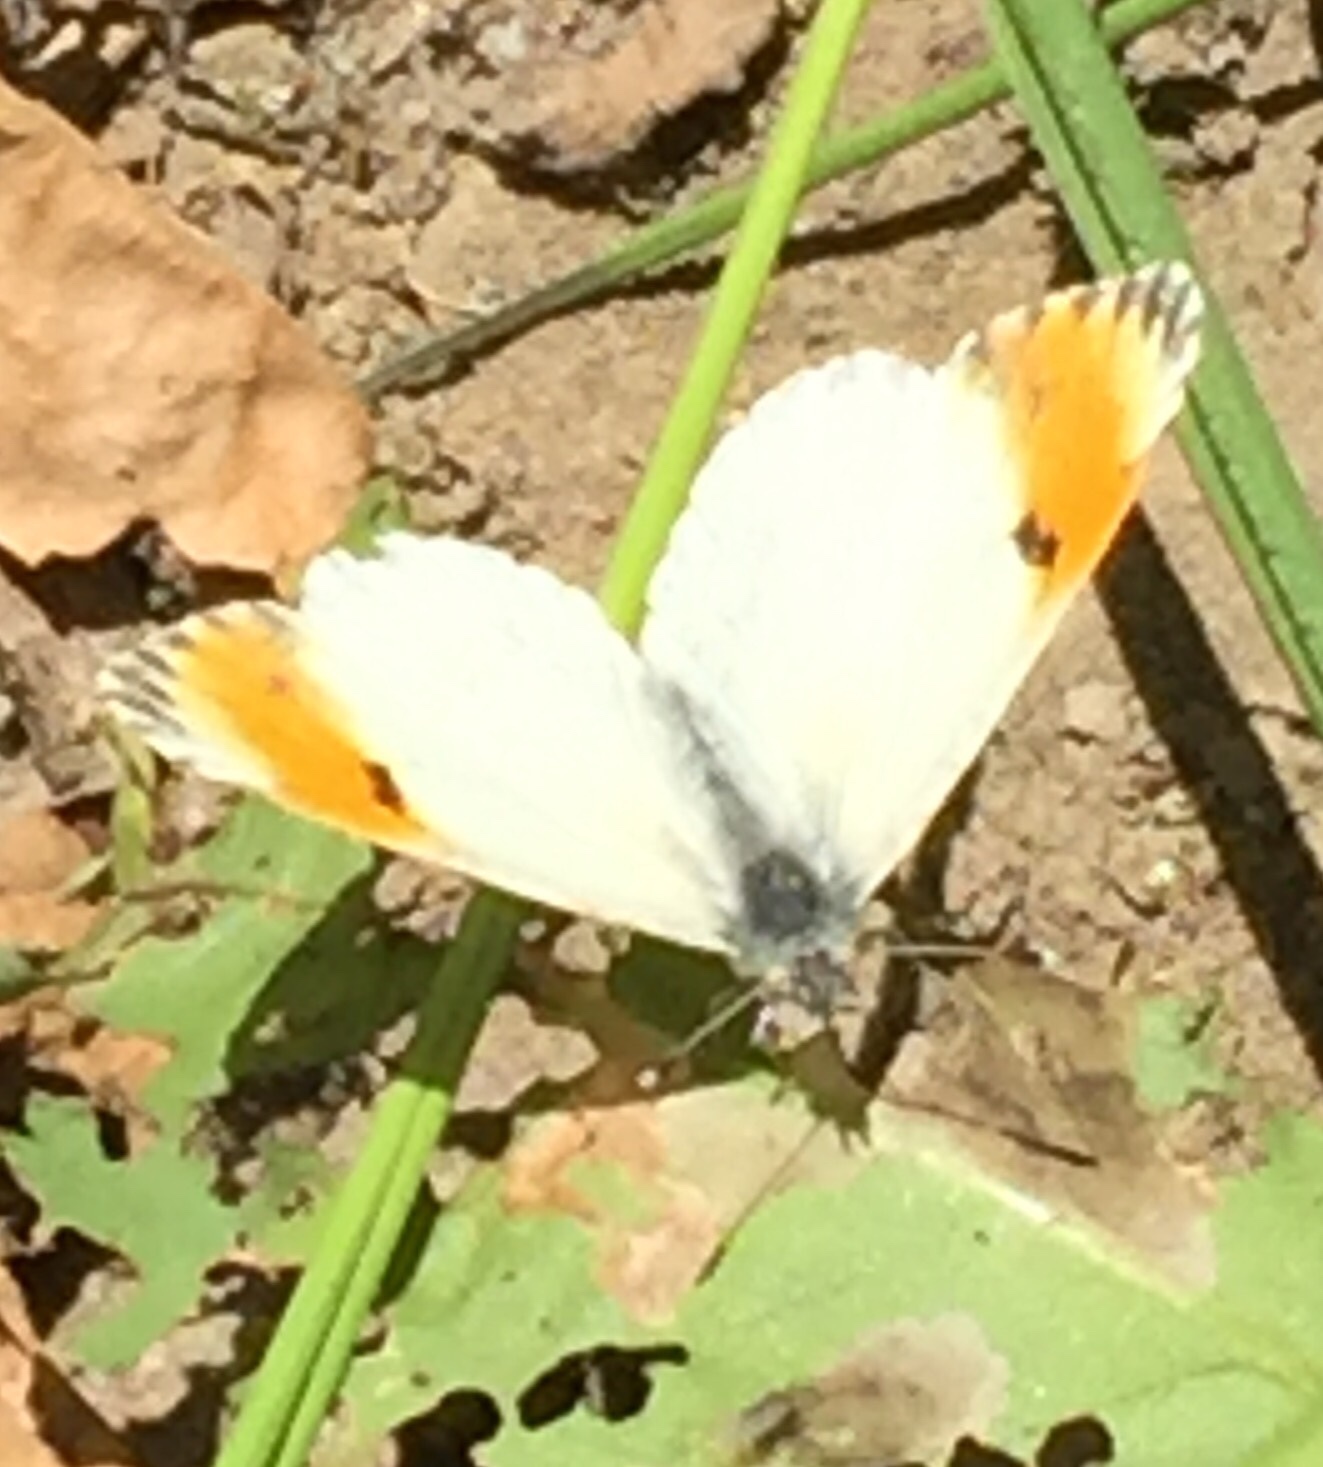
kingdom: Animalia
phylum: Arthropoda
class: Insecta
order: Lepidoptera
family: Pieridae
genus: Anthocharis
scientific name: Anthocharis sara
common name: Sara's orangetip
